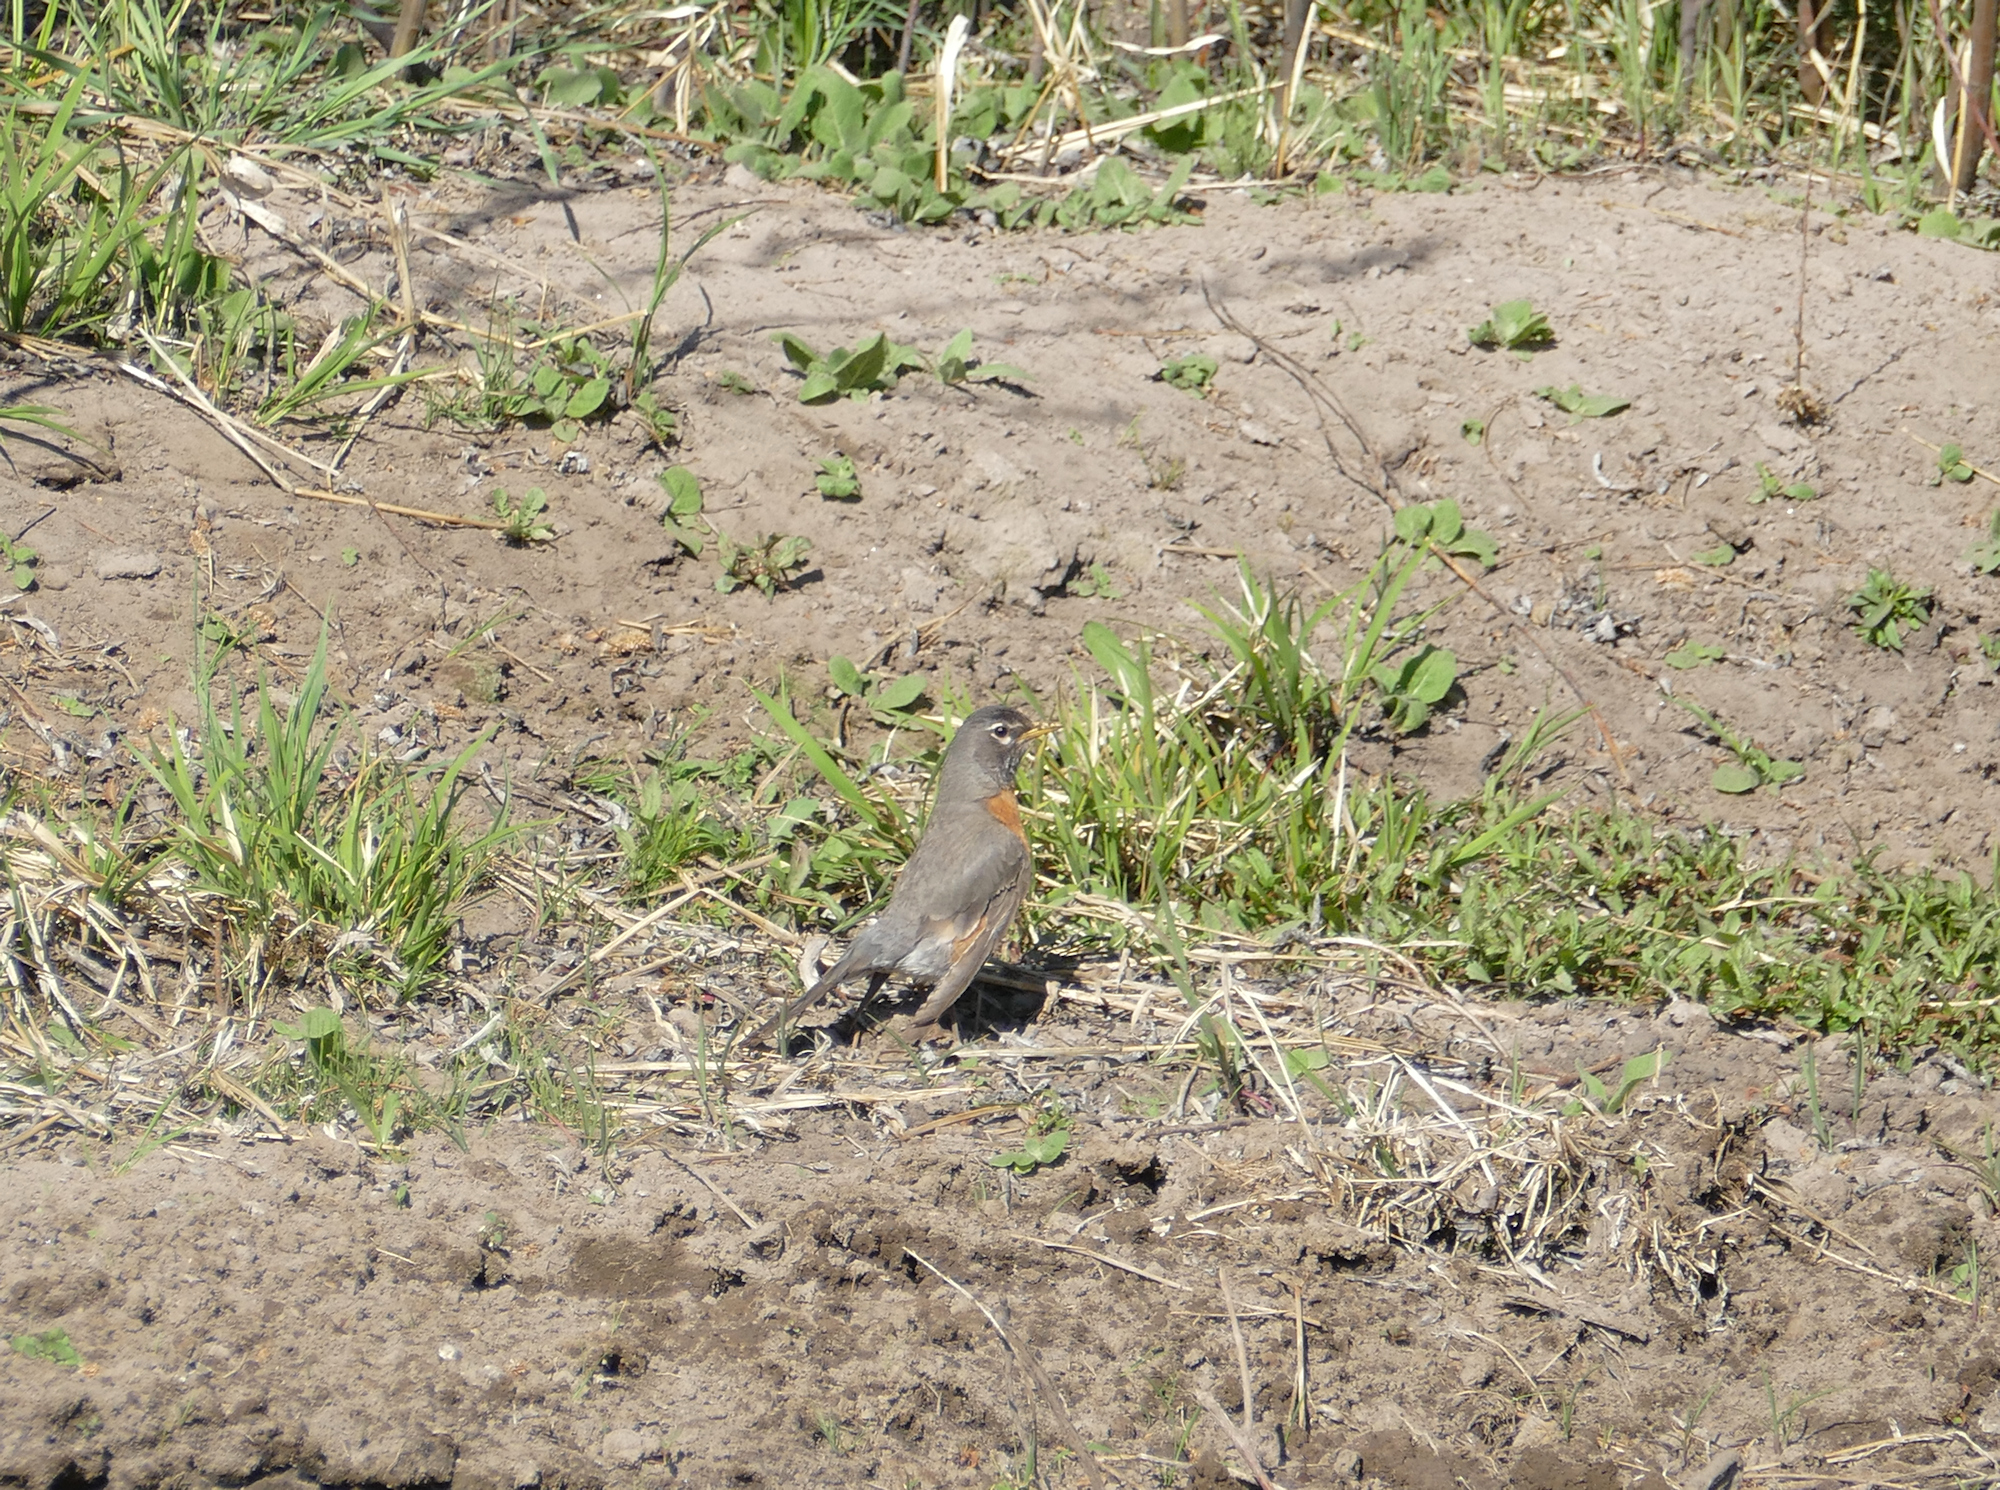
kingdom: Animalia
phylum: Chordata
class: Aves
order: Passeriformes
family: Turdidae
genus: Turdus
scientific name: Turdus migratorius
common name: American robin
